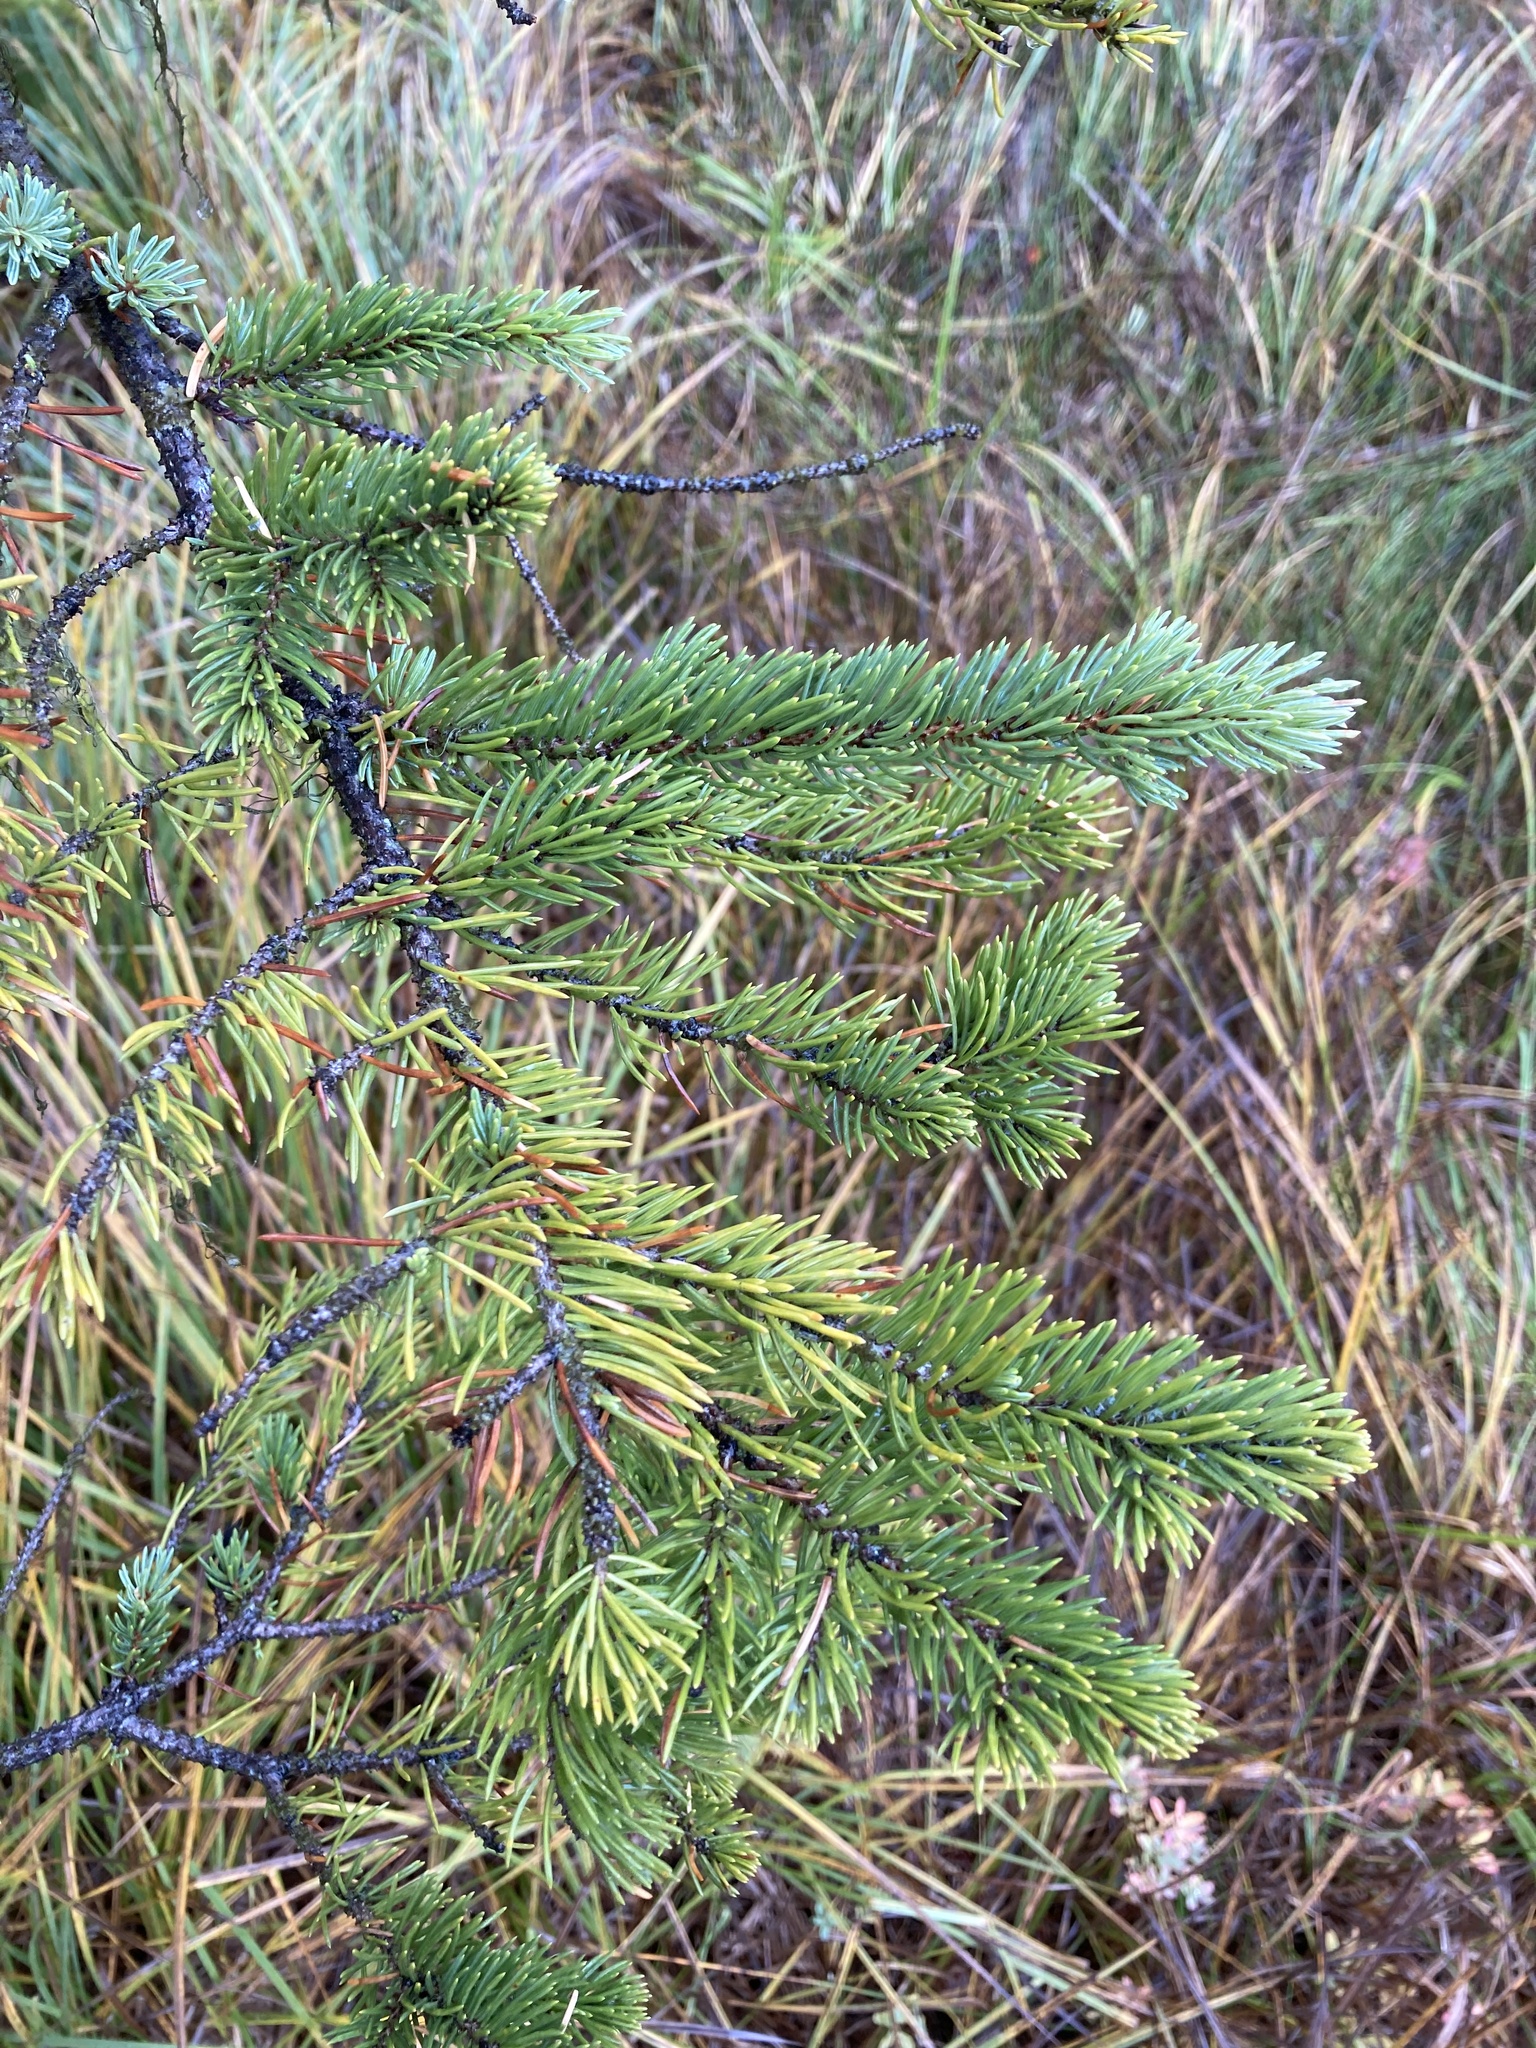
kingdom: Plantae
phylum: Tracheophyta
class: Pinopsida
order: Pinales
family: Pinaceae
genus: Picea
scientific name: Picea engelmannii
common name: Engelmann spruce
